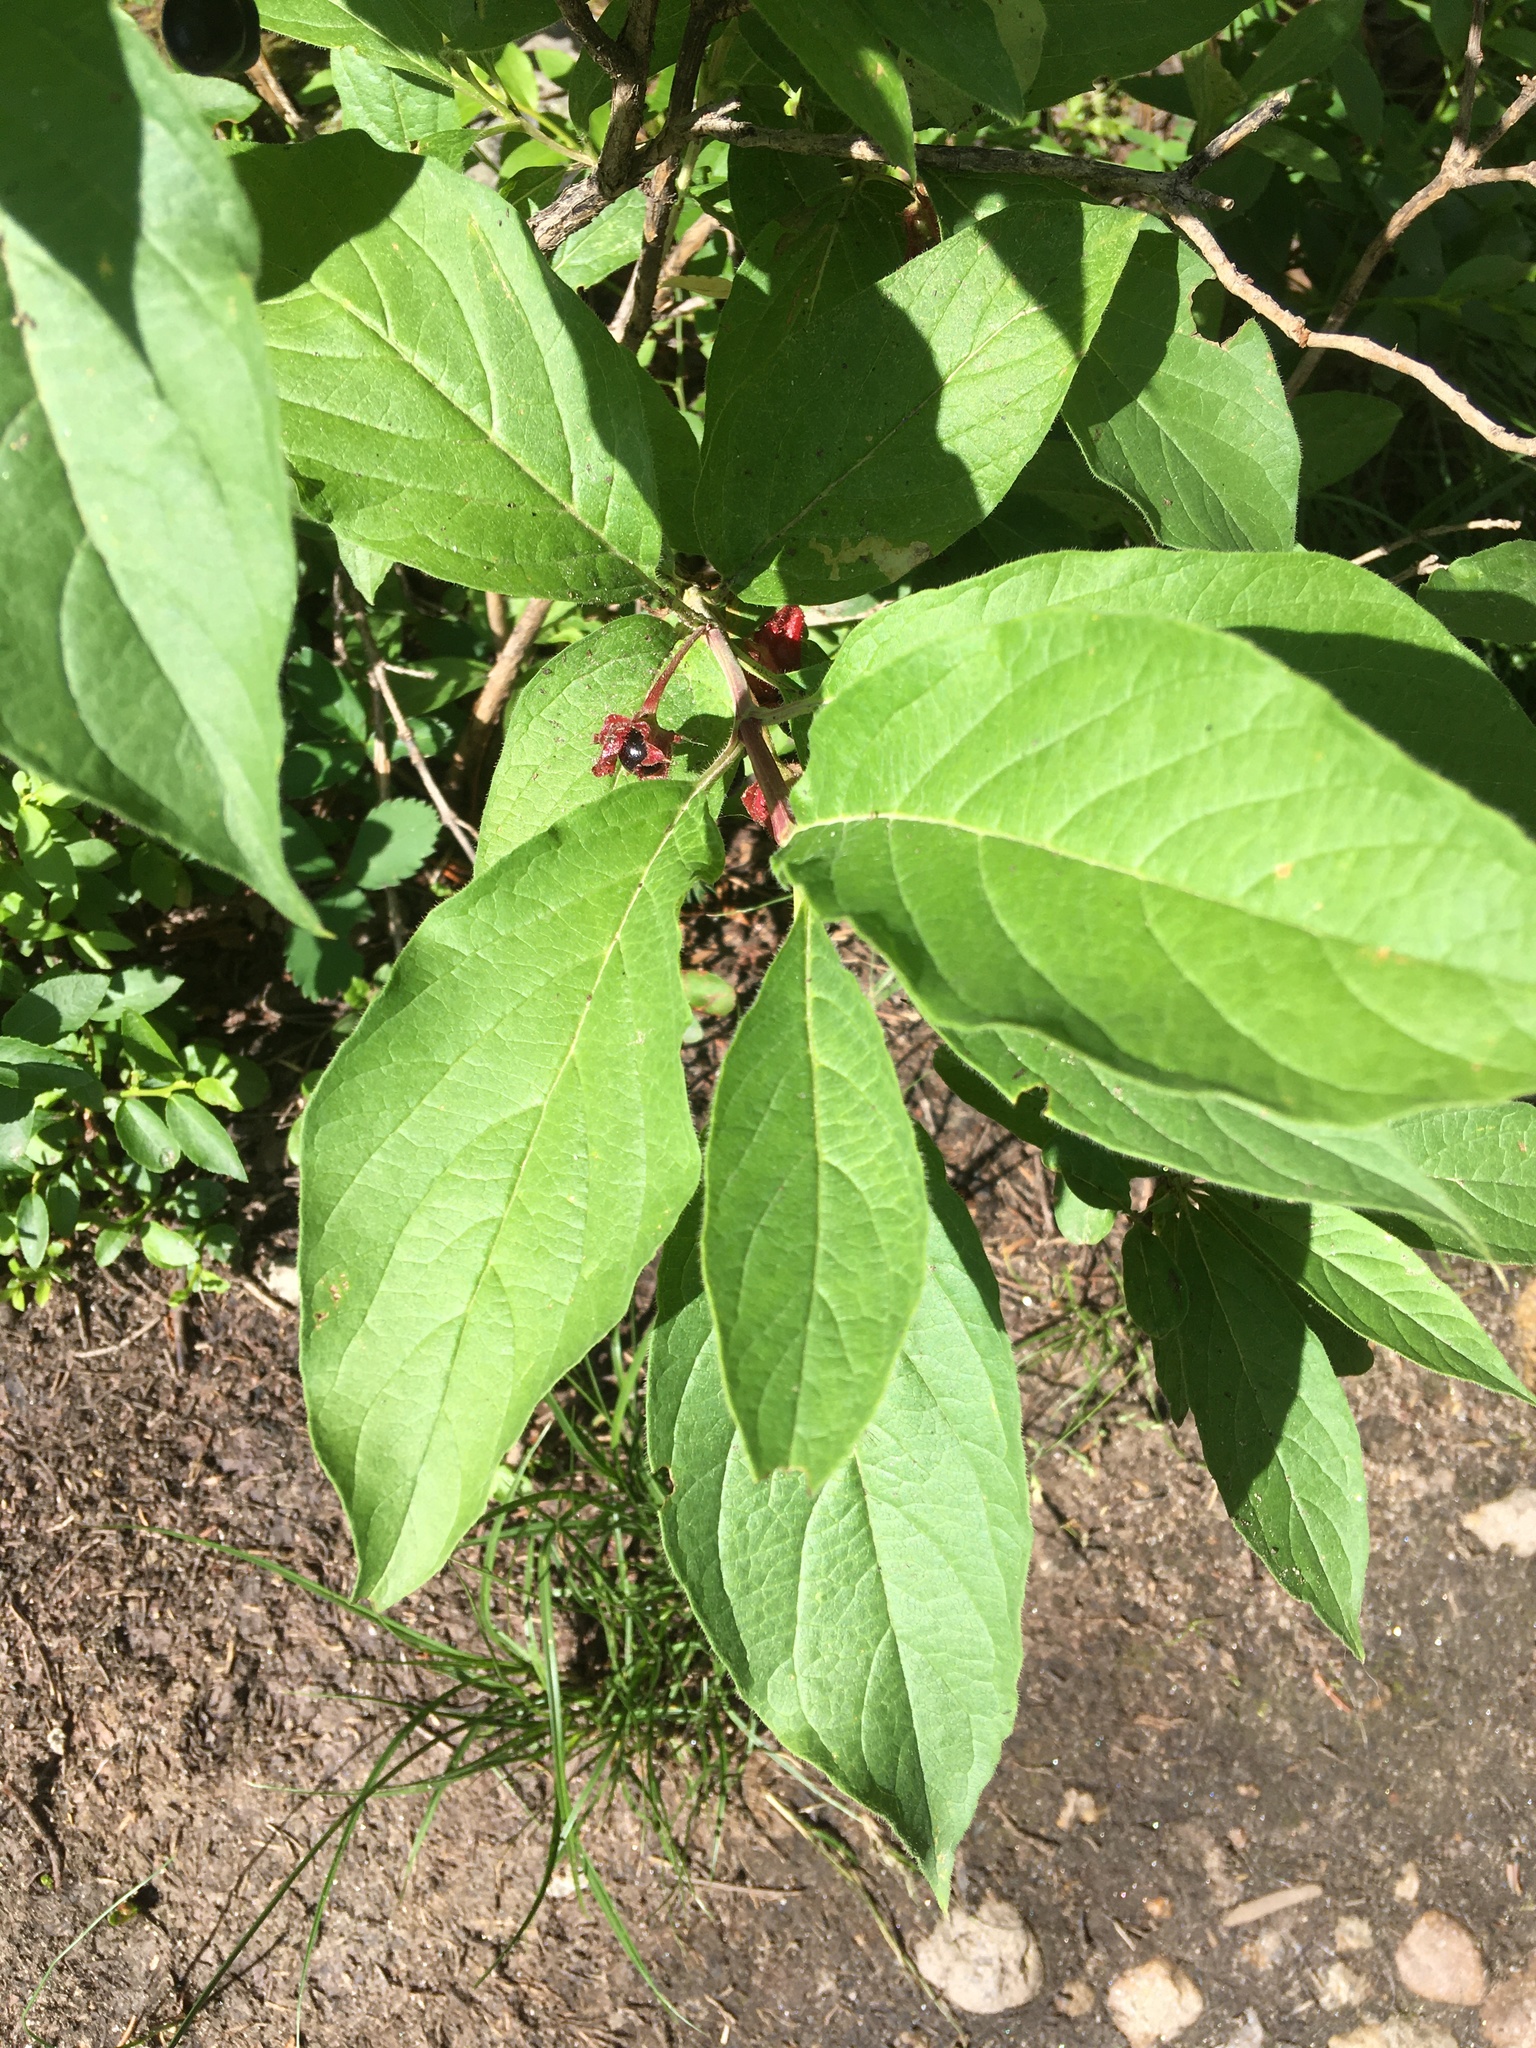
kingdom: Plantae
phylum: Tracheophyta
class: Magnoliopsida
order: Dipsacales
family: Caprifoliaceae
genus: Lonicera
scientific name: Lonicera involucrata
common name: Californian honeysuckle
